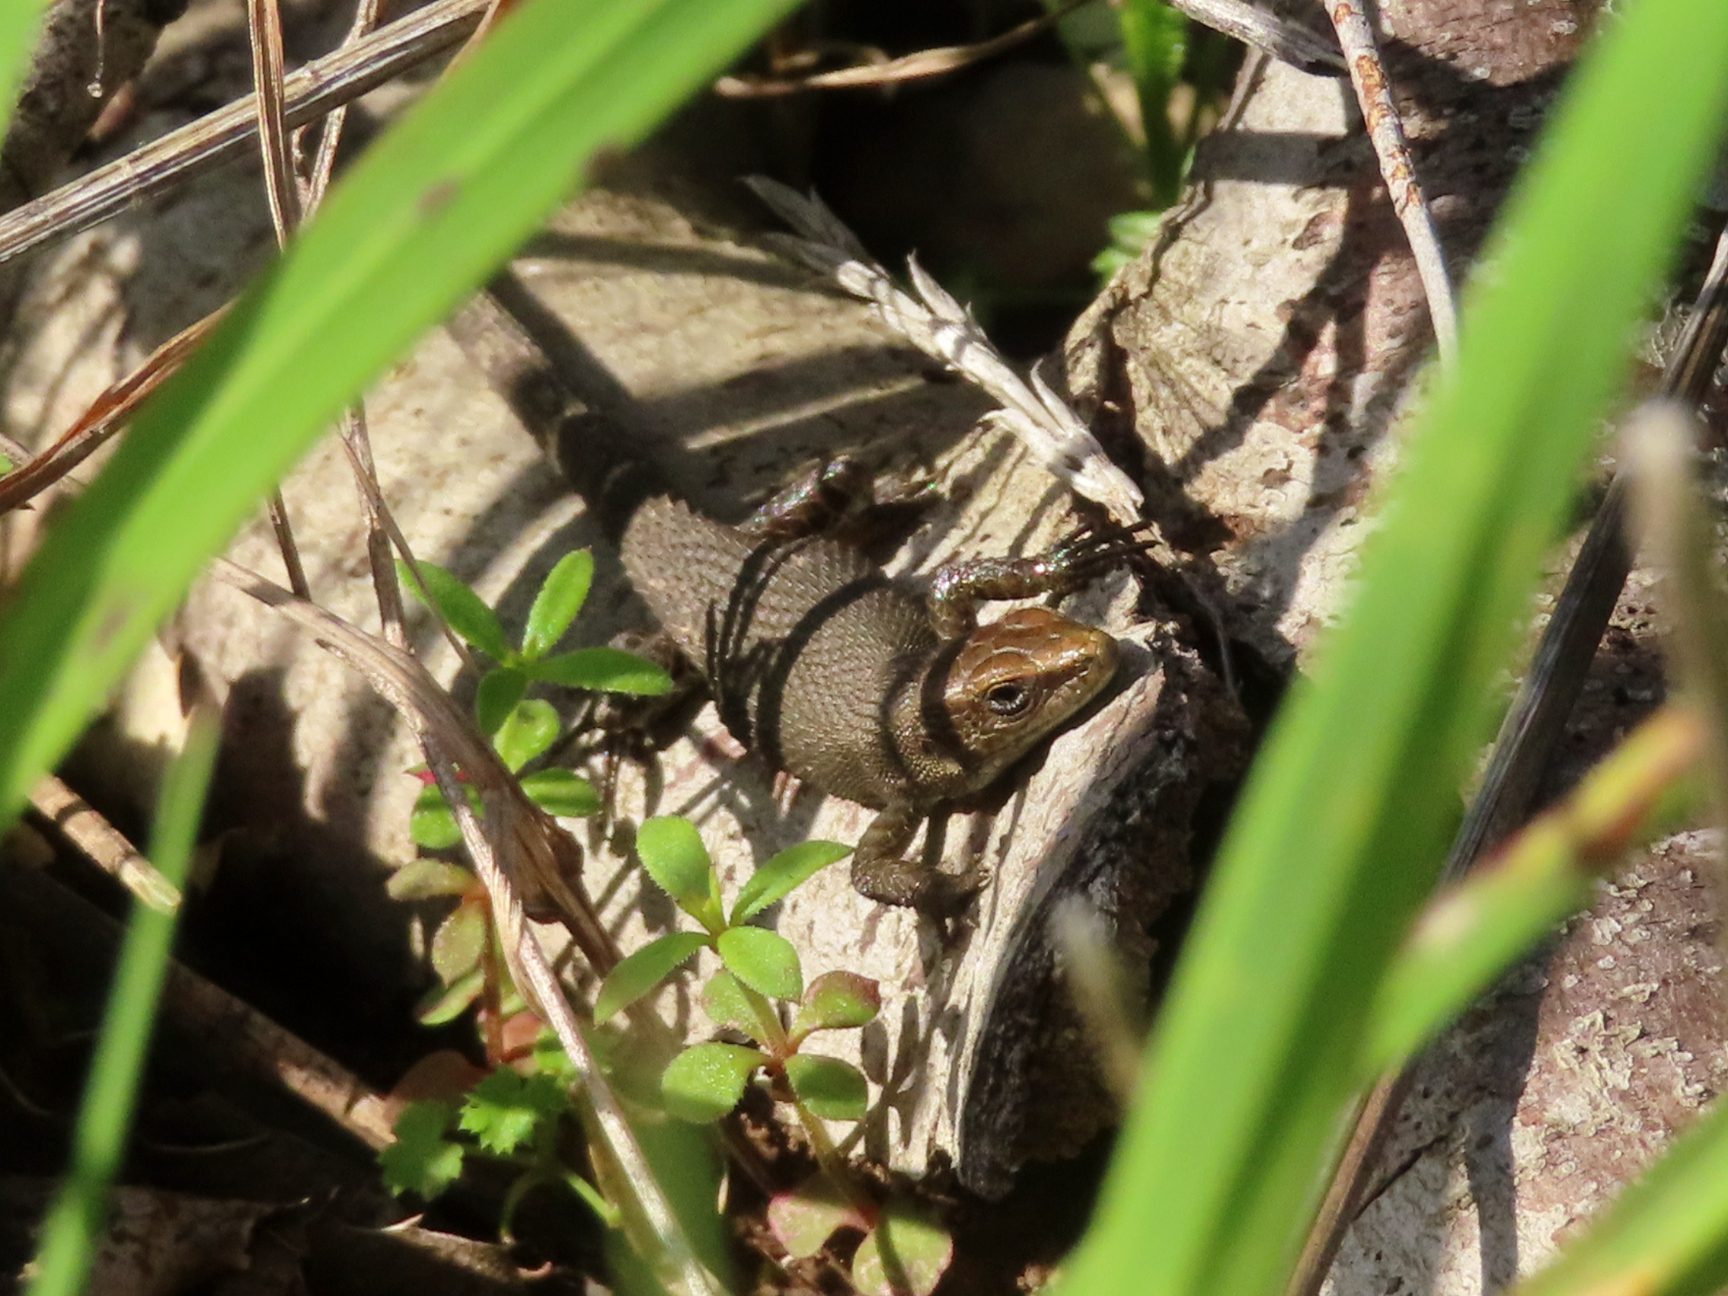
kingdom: Animalia
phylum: Chordata
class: Squamata
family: Lacertidae
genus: Algyroides
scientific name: Algyroides moreoticus
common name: Greek algyroides
